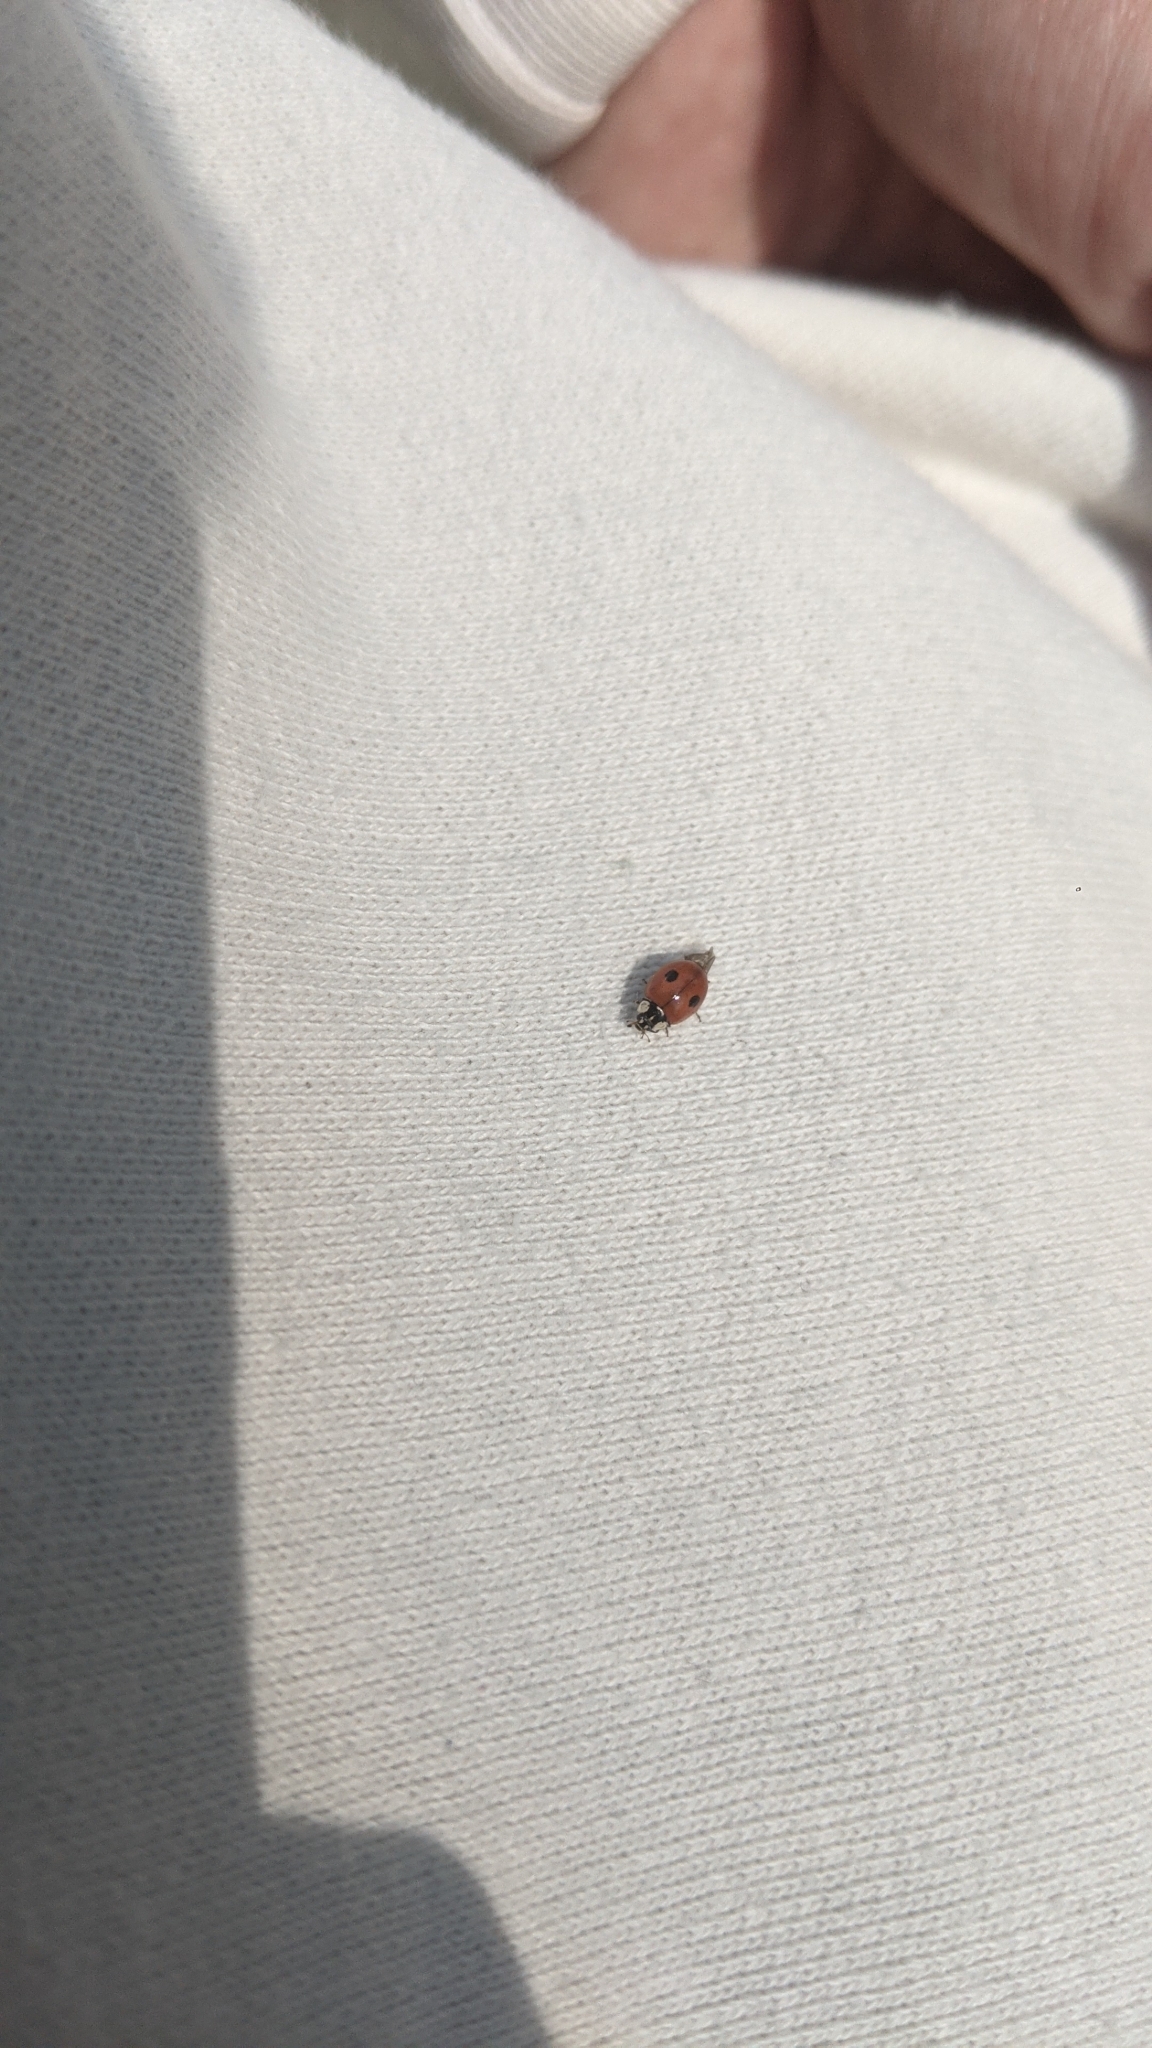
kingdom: Animalia
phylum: Arthropoda
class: Insecta
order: Coleoptera
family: Coccinellidae
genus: Adalia
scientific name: Adalia bipunctata
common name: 2-spot ladybird
